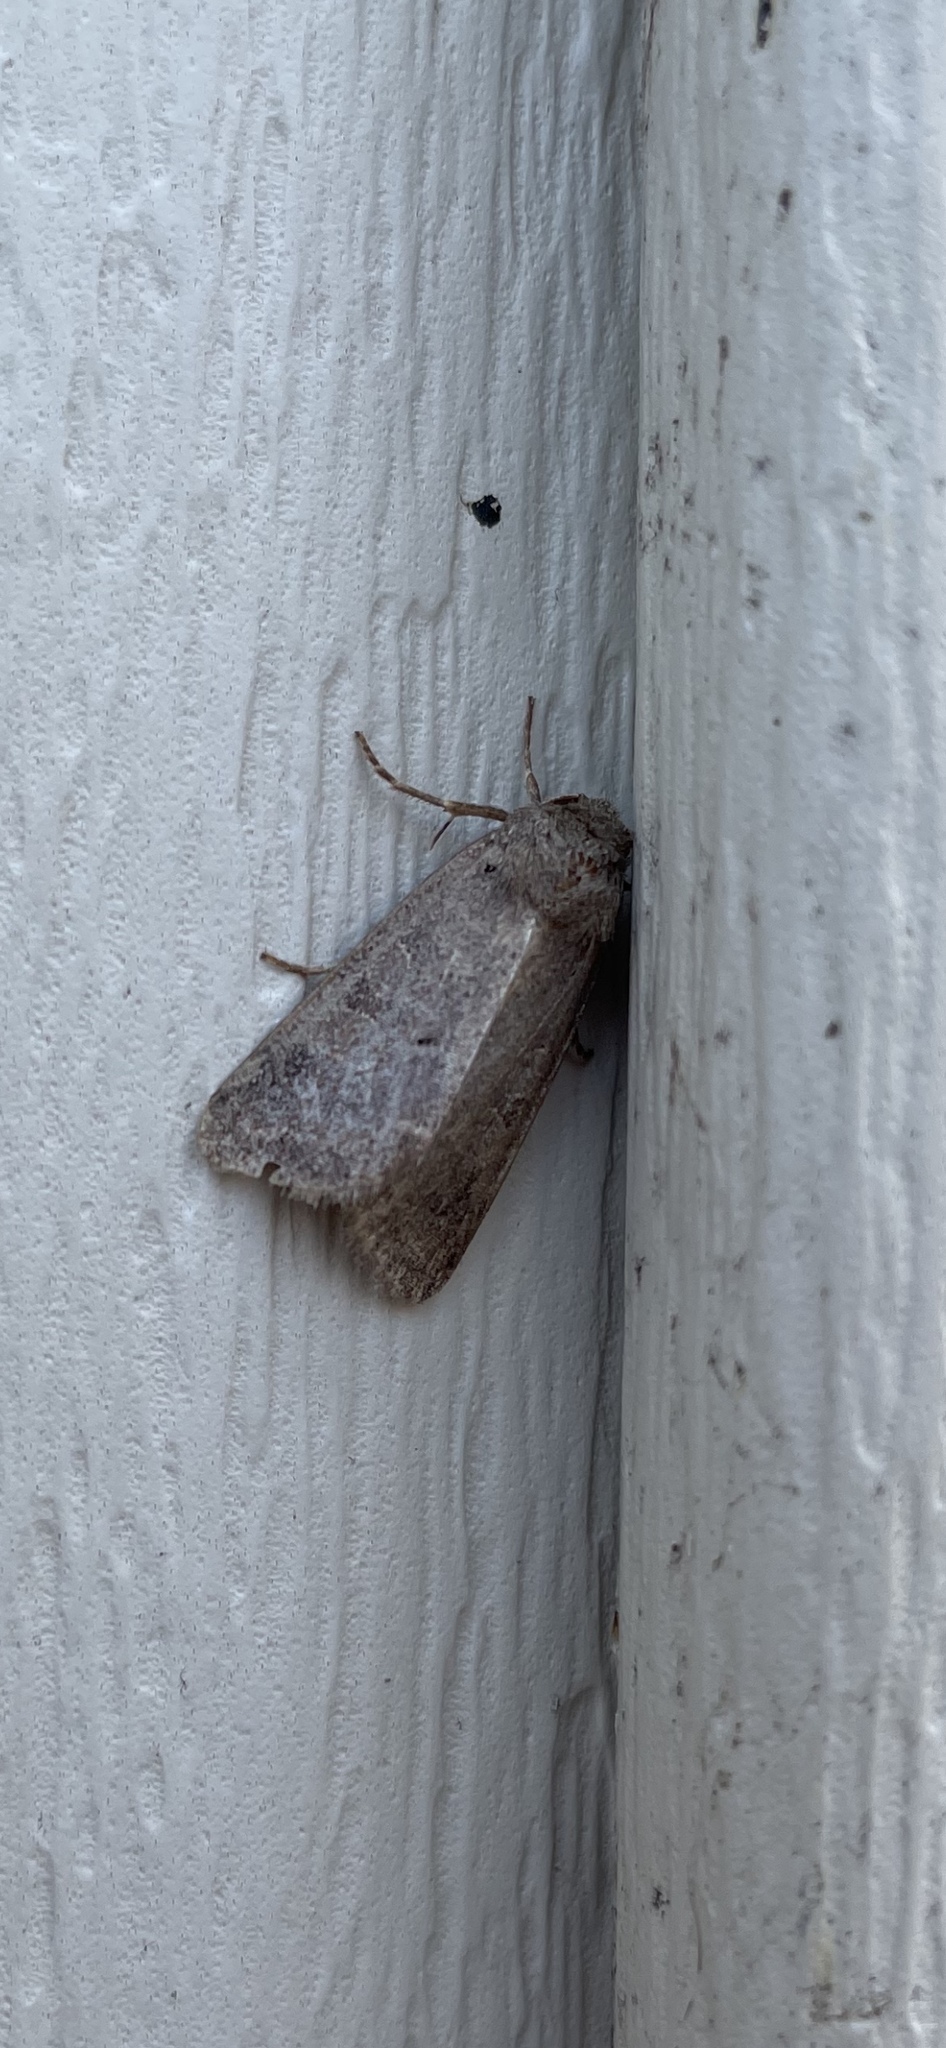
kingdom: Animalia
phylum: Arthropoda
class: Insecta
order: Lepidoptera
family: Noctuidae
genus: Kocakina
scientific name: Kocakina fidelis
